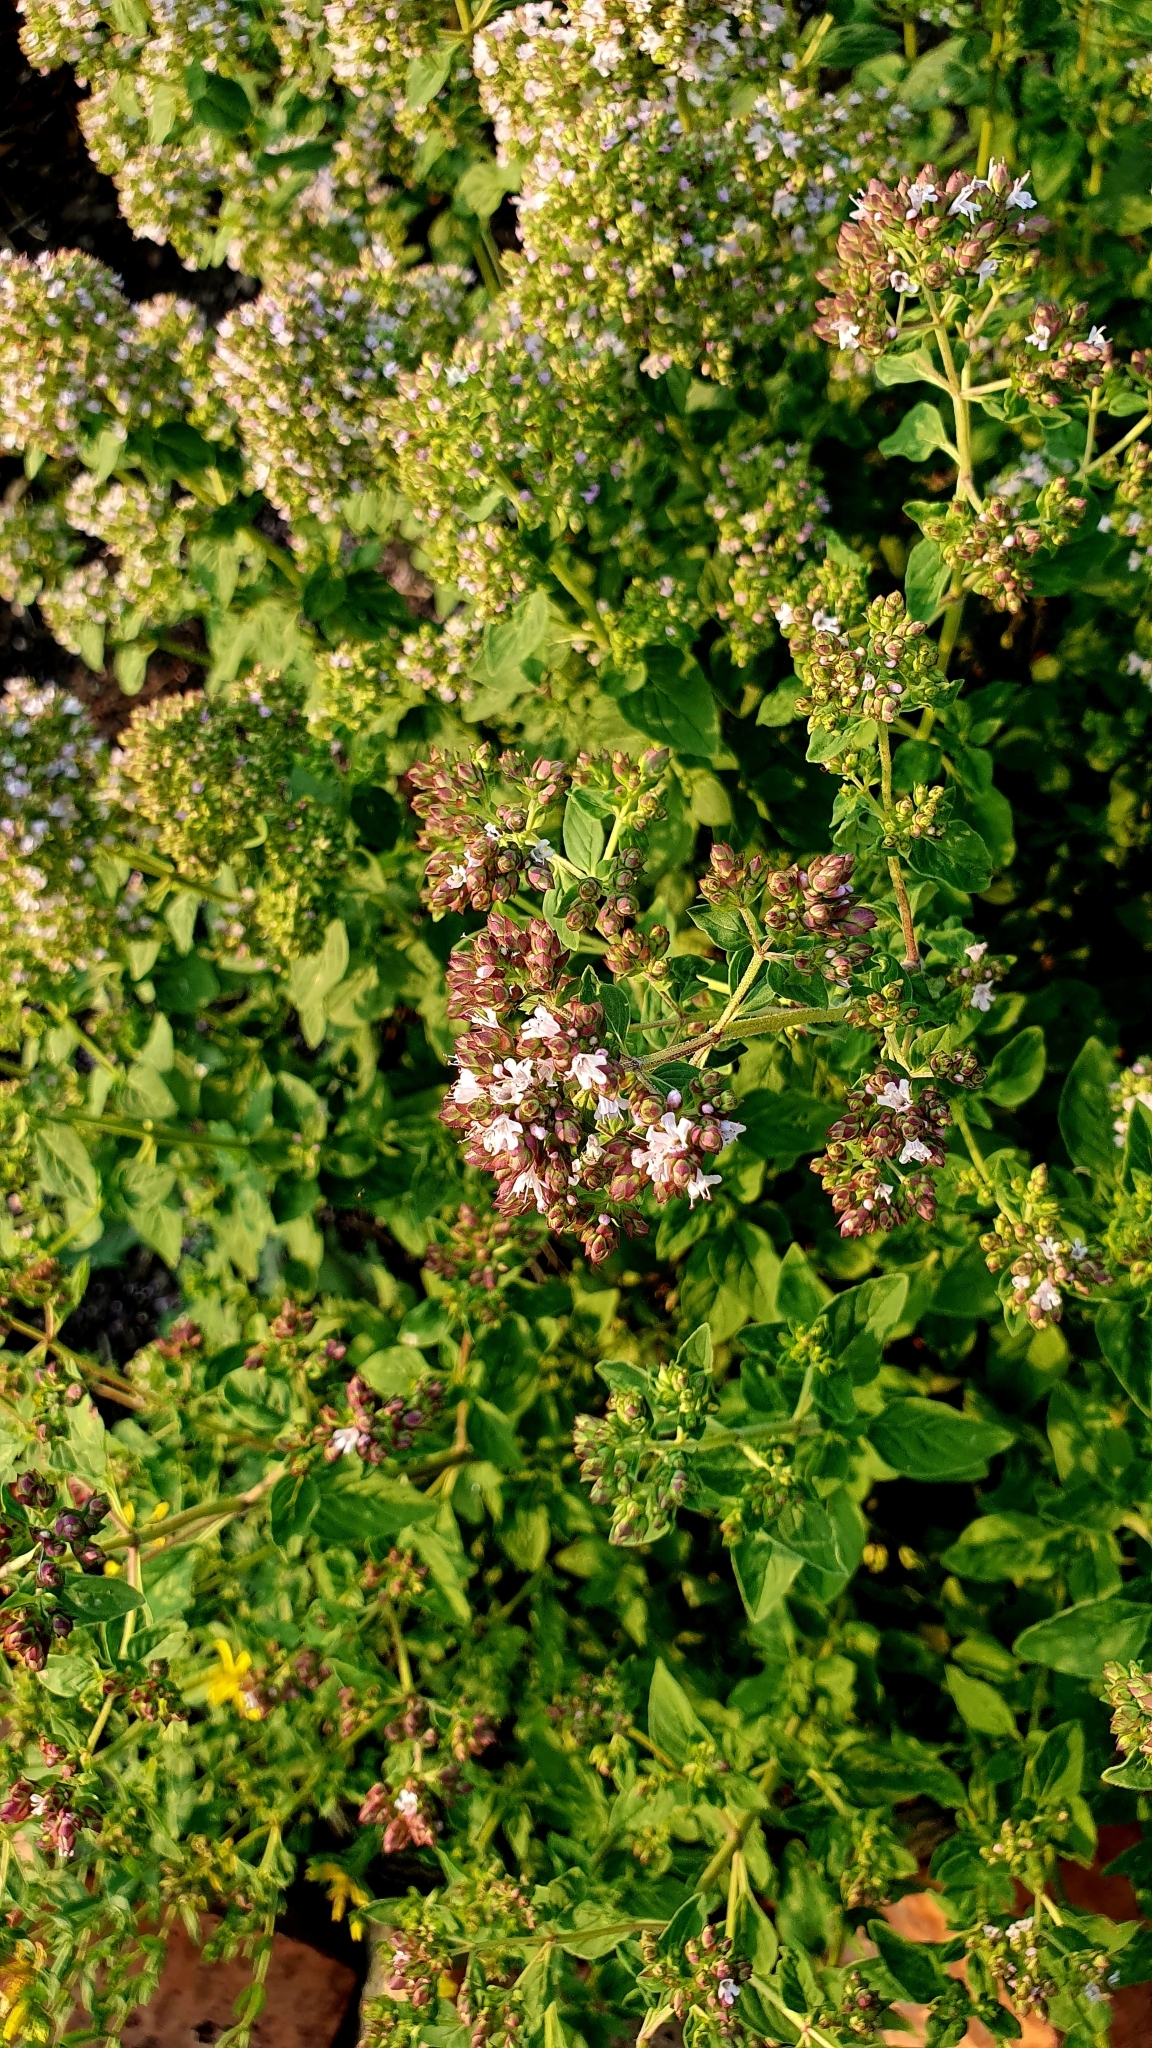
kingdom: Plantae
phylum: Tracheophyta
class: Magnoliopsida
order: Lamiales
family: Lamiaceae
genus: Origanum
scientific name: Origanum vulgare
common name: Wild marjoram
